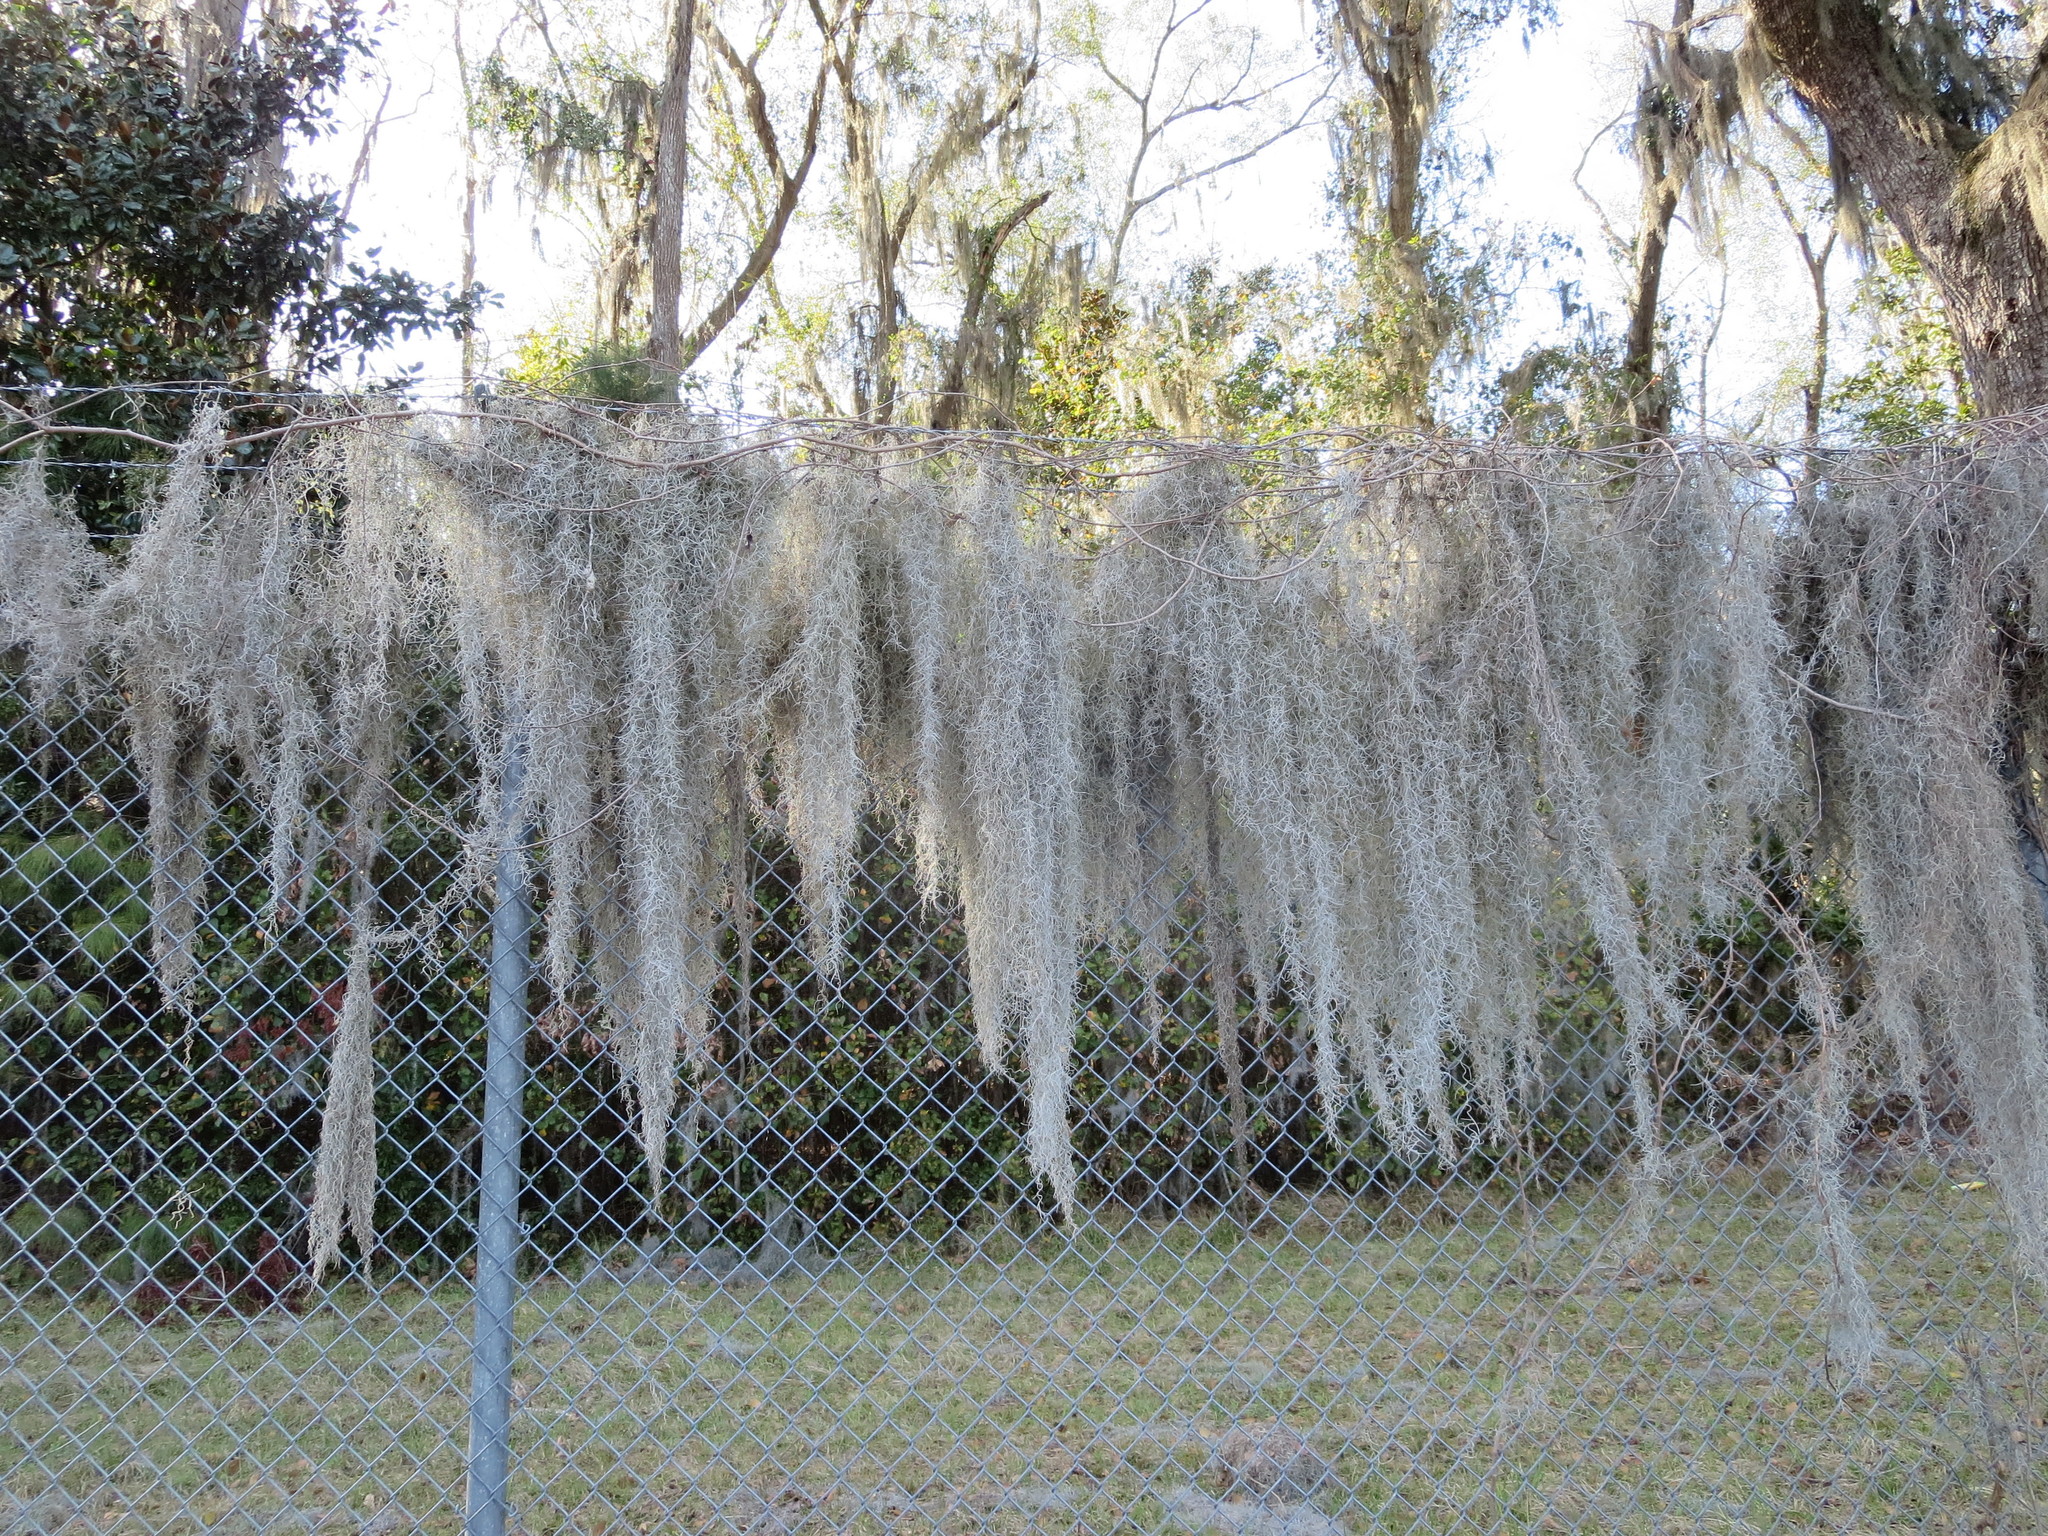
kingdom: Plantae
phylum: Tracheophyta
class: Liliopsida
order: Poales
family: Bromeliaceae
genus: Tillandsia
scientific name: Tillandsia usneoides
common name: Spanish moss
